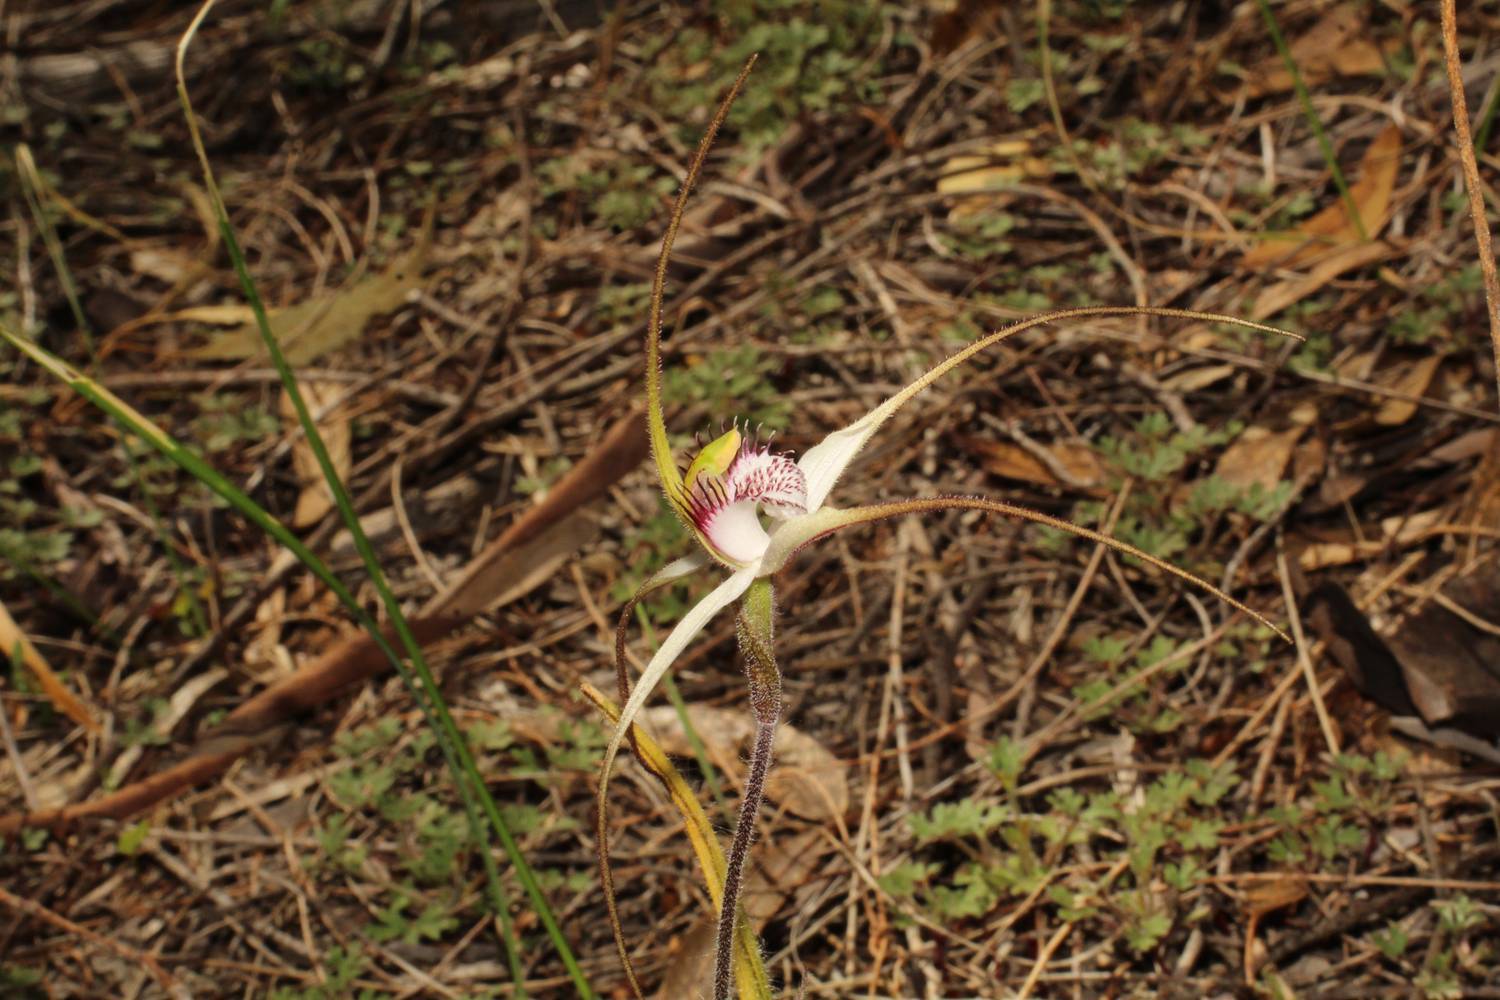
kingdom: Plantae
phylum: Tracheophyta
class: Liliopsida
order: Asparagales
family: Orchidaceae
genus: Caladenia
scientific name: Caladenia longicauda
